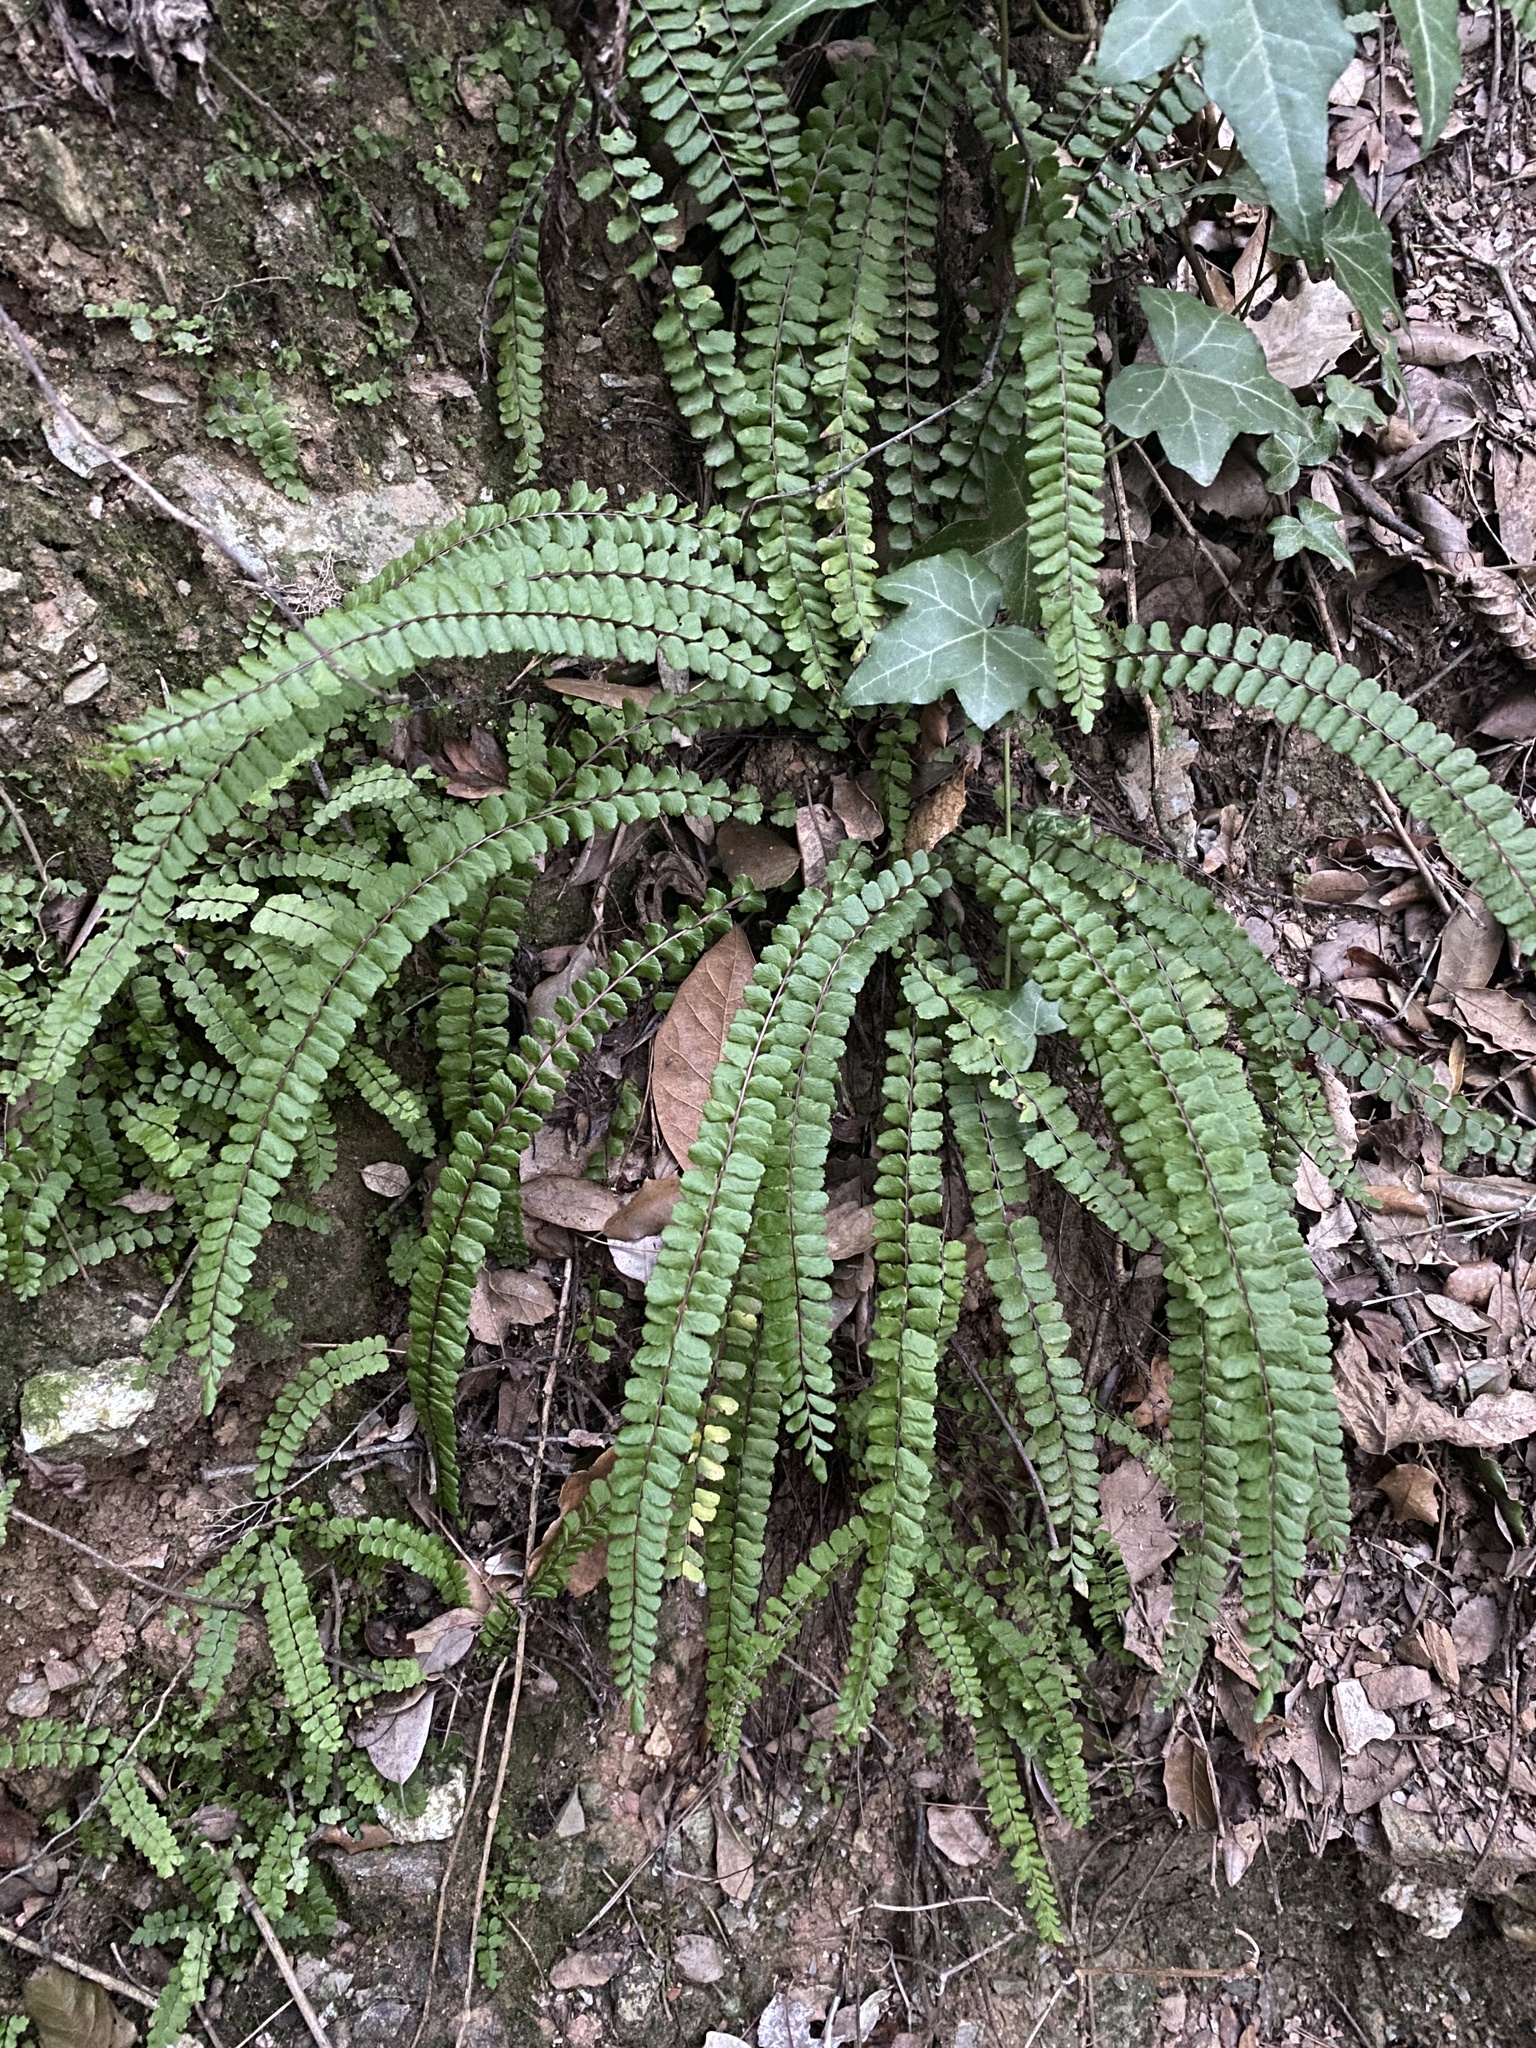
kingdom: Plantae
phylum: Tracheophyta
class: Polypodiopsida
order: Polypodiales
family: Aspleniaceae
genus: Asplenium
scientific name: Asplenium trichomanes
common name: Maidenhair spleenwort
